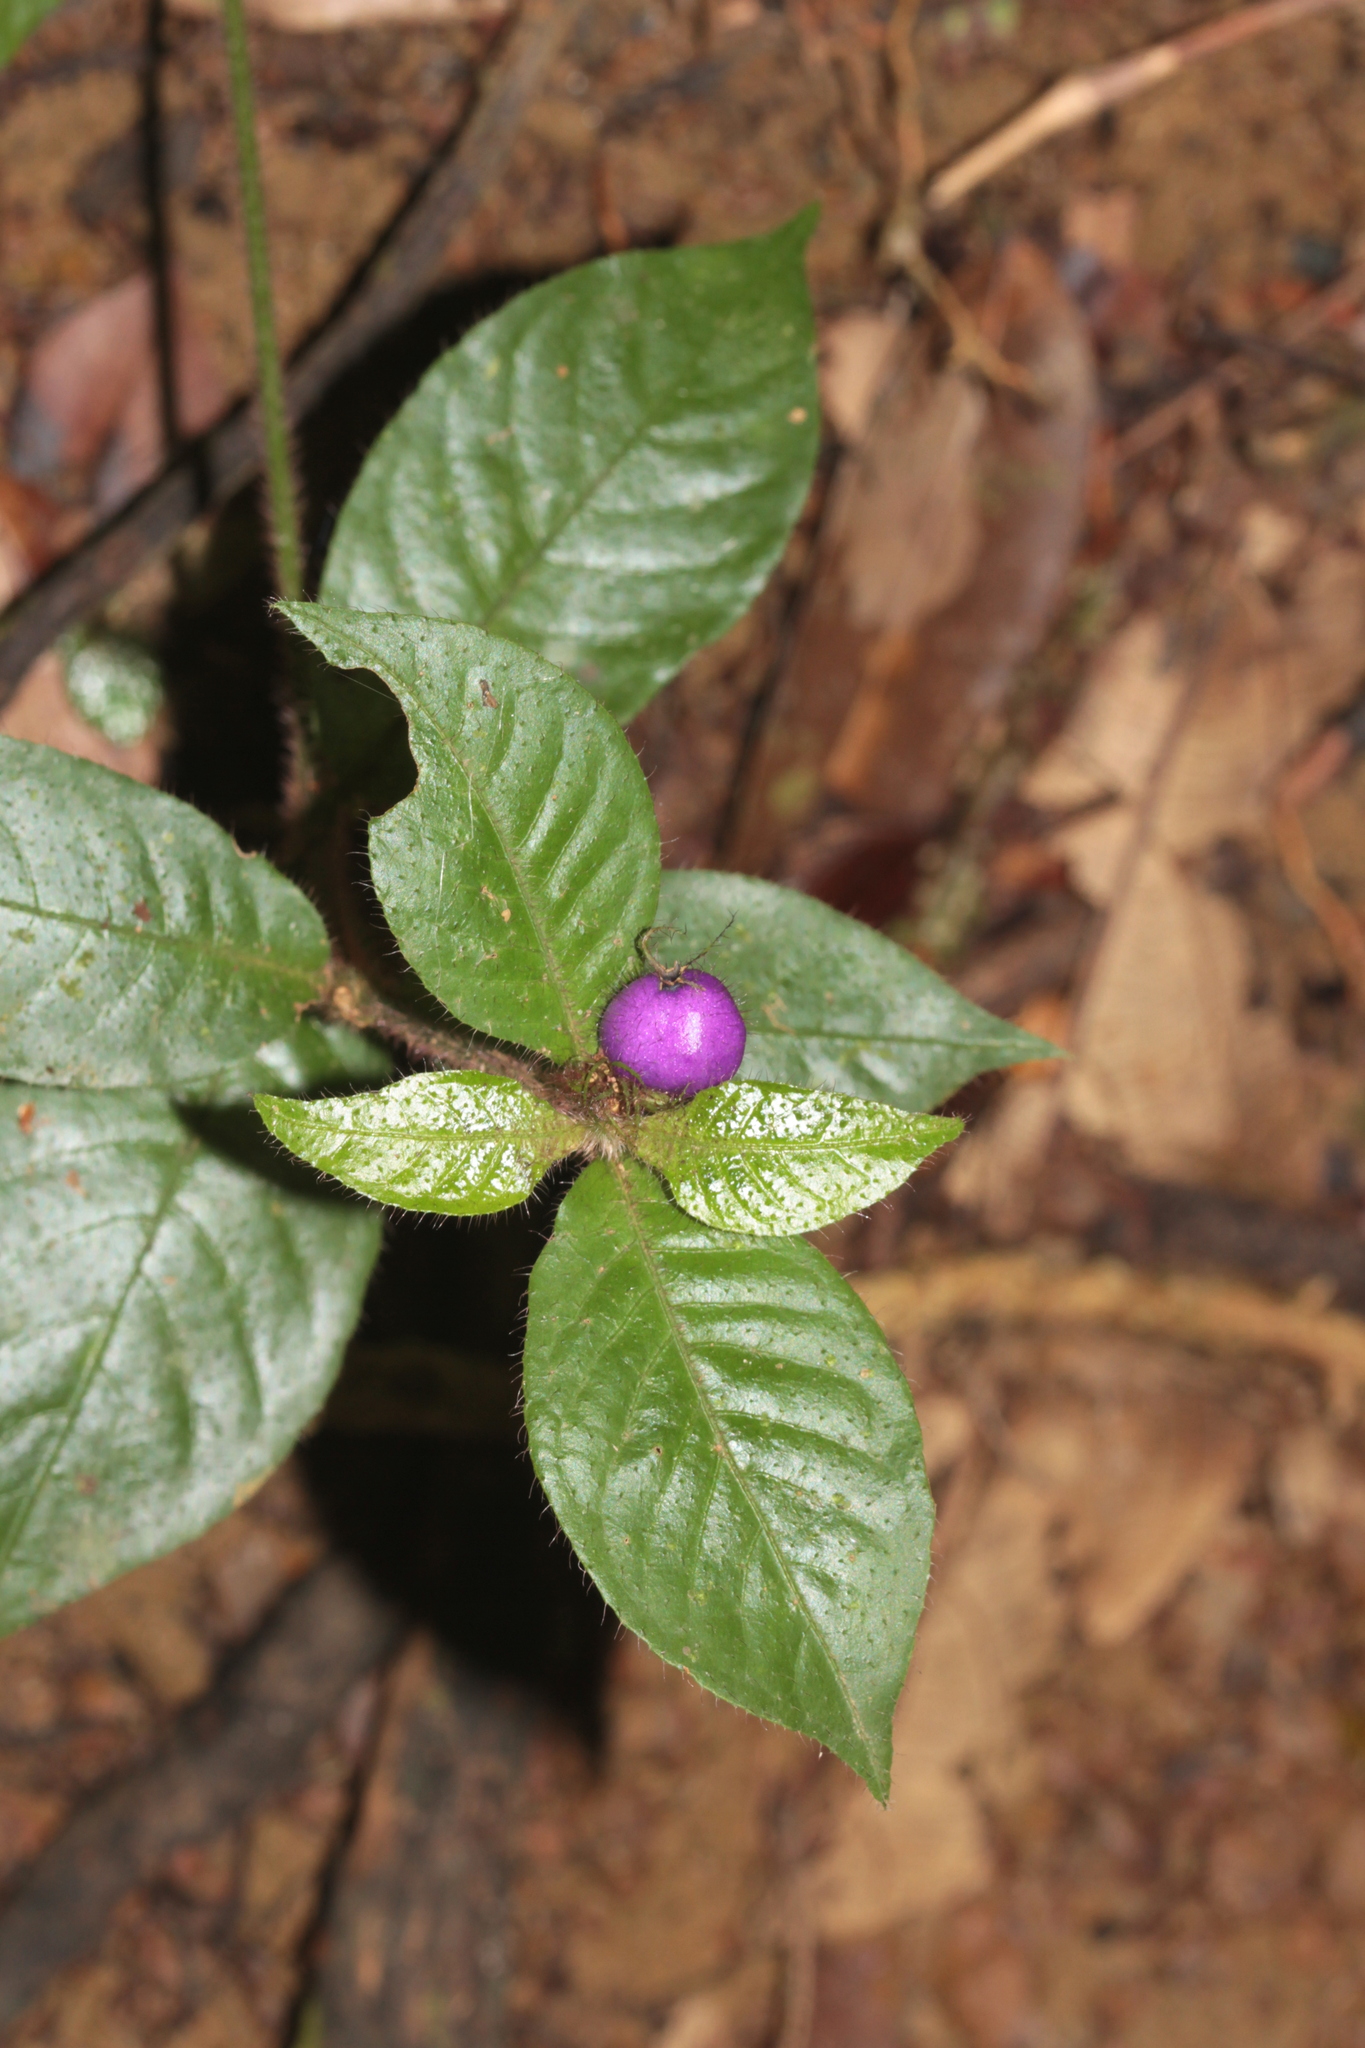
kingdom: Plantae
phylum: Tracheophyta
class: Magnoliopsida
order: Gentianales
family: Rubiaceae
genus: Palicourea
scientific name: Palicourea iodotricha
